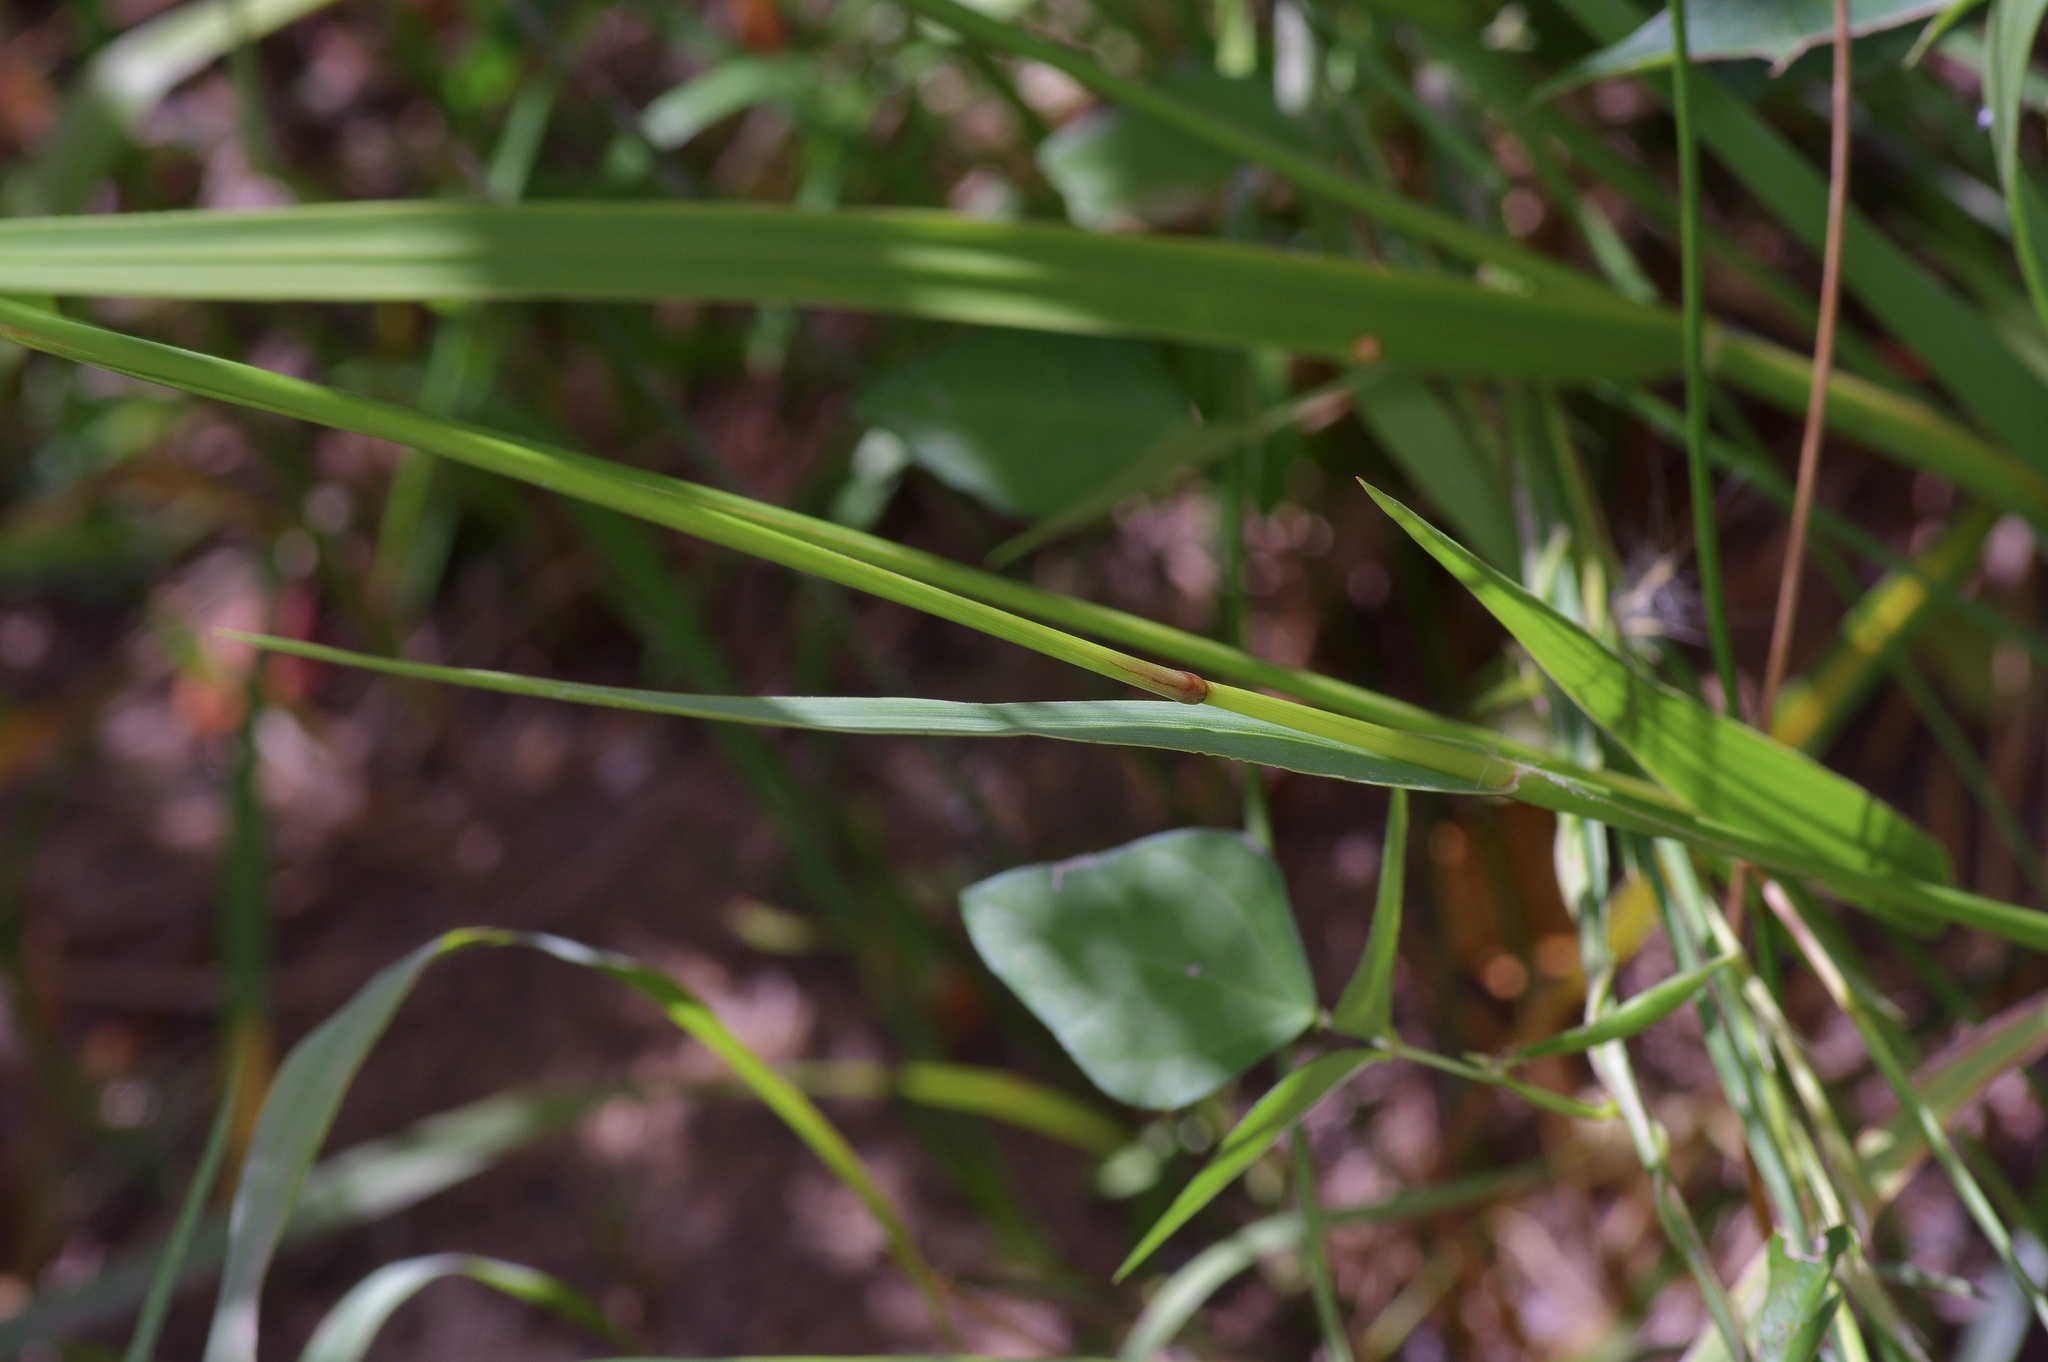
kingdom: Plantae
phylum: Tracheophyta
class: Liliopsida
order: Poales
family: Poaceae
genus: Paspalum
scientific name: Paspalum floridanum
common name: Florida paspalum
